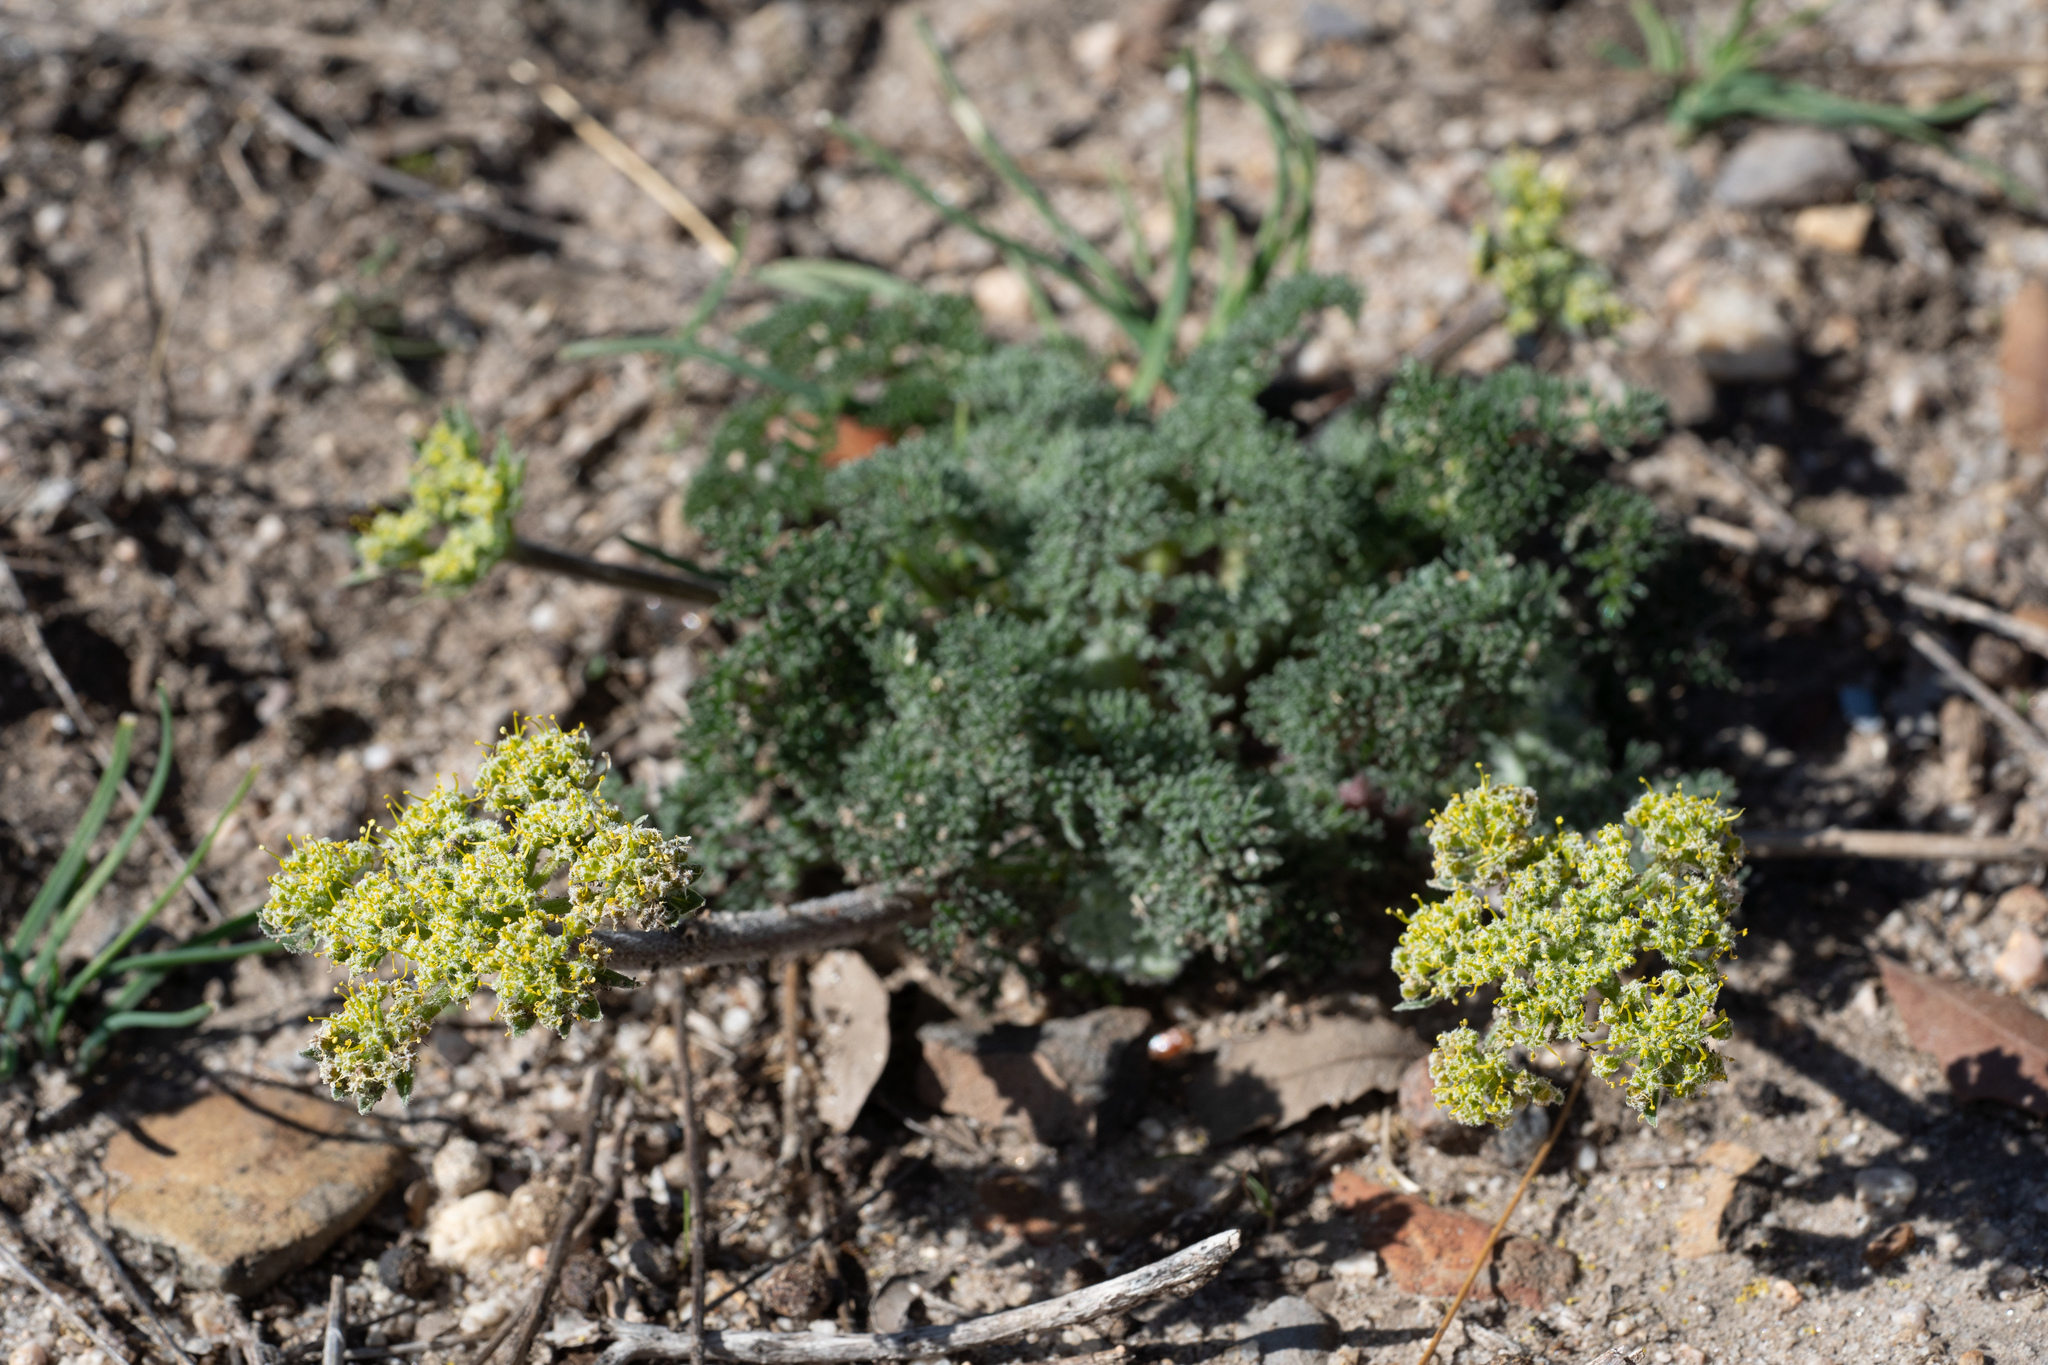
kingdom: Plantae
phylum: Tracheophyta
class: Magnoliopsida
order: Apiales
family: Apiaceae
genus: Lomatium
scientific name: Lomatium dasycarpum
